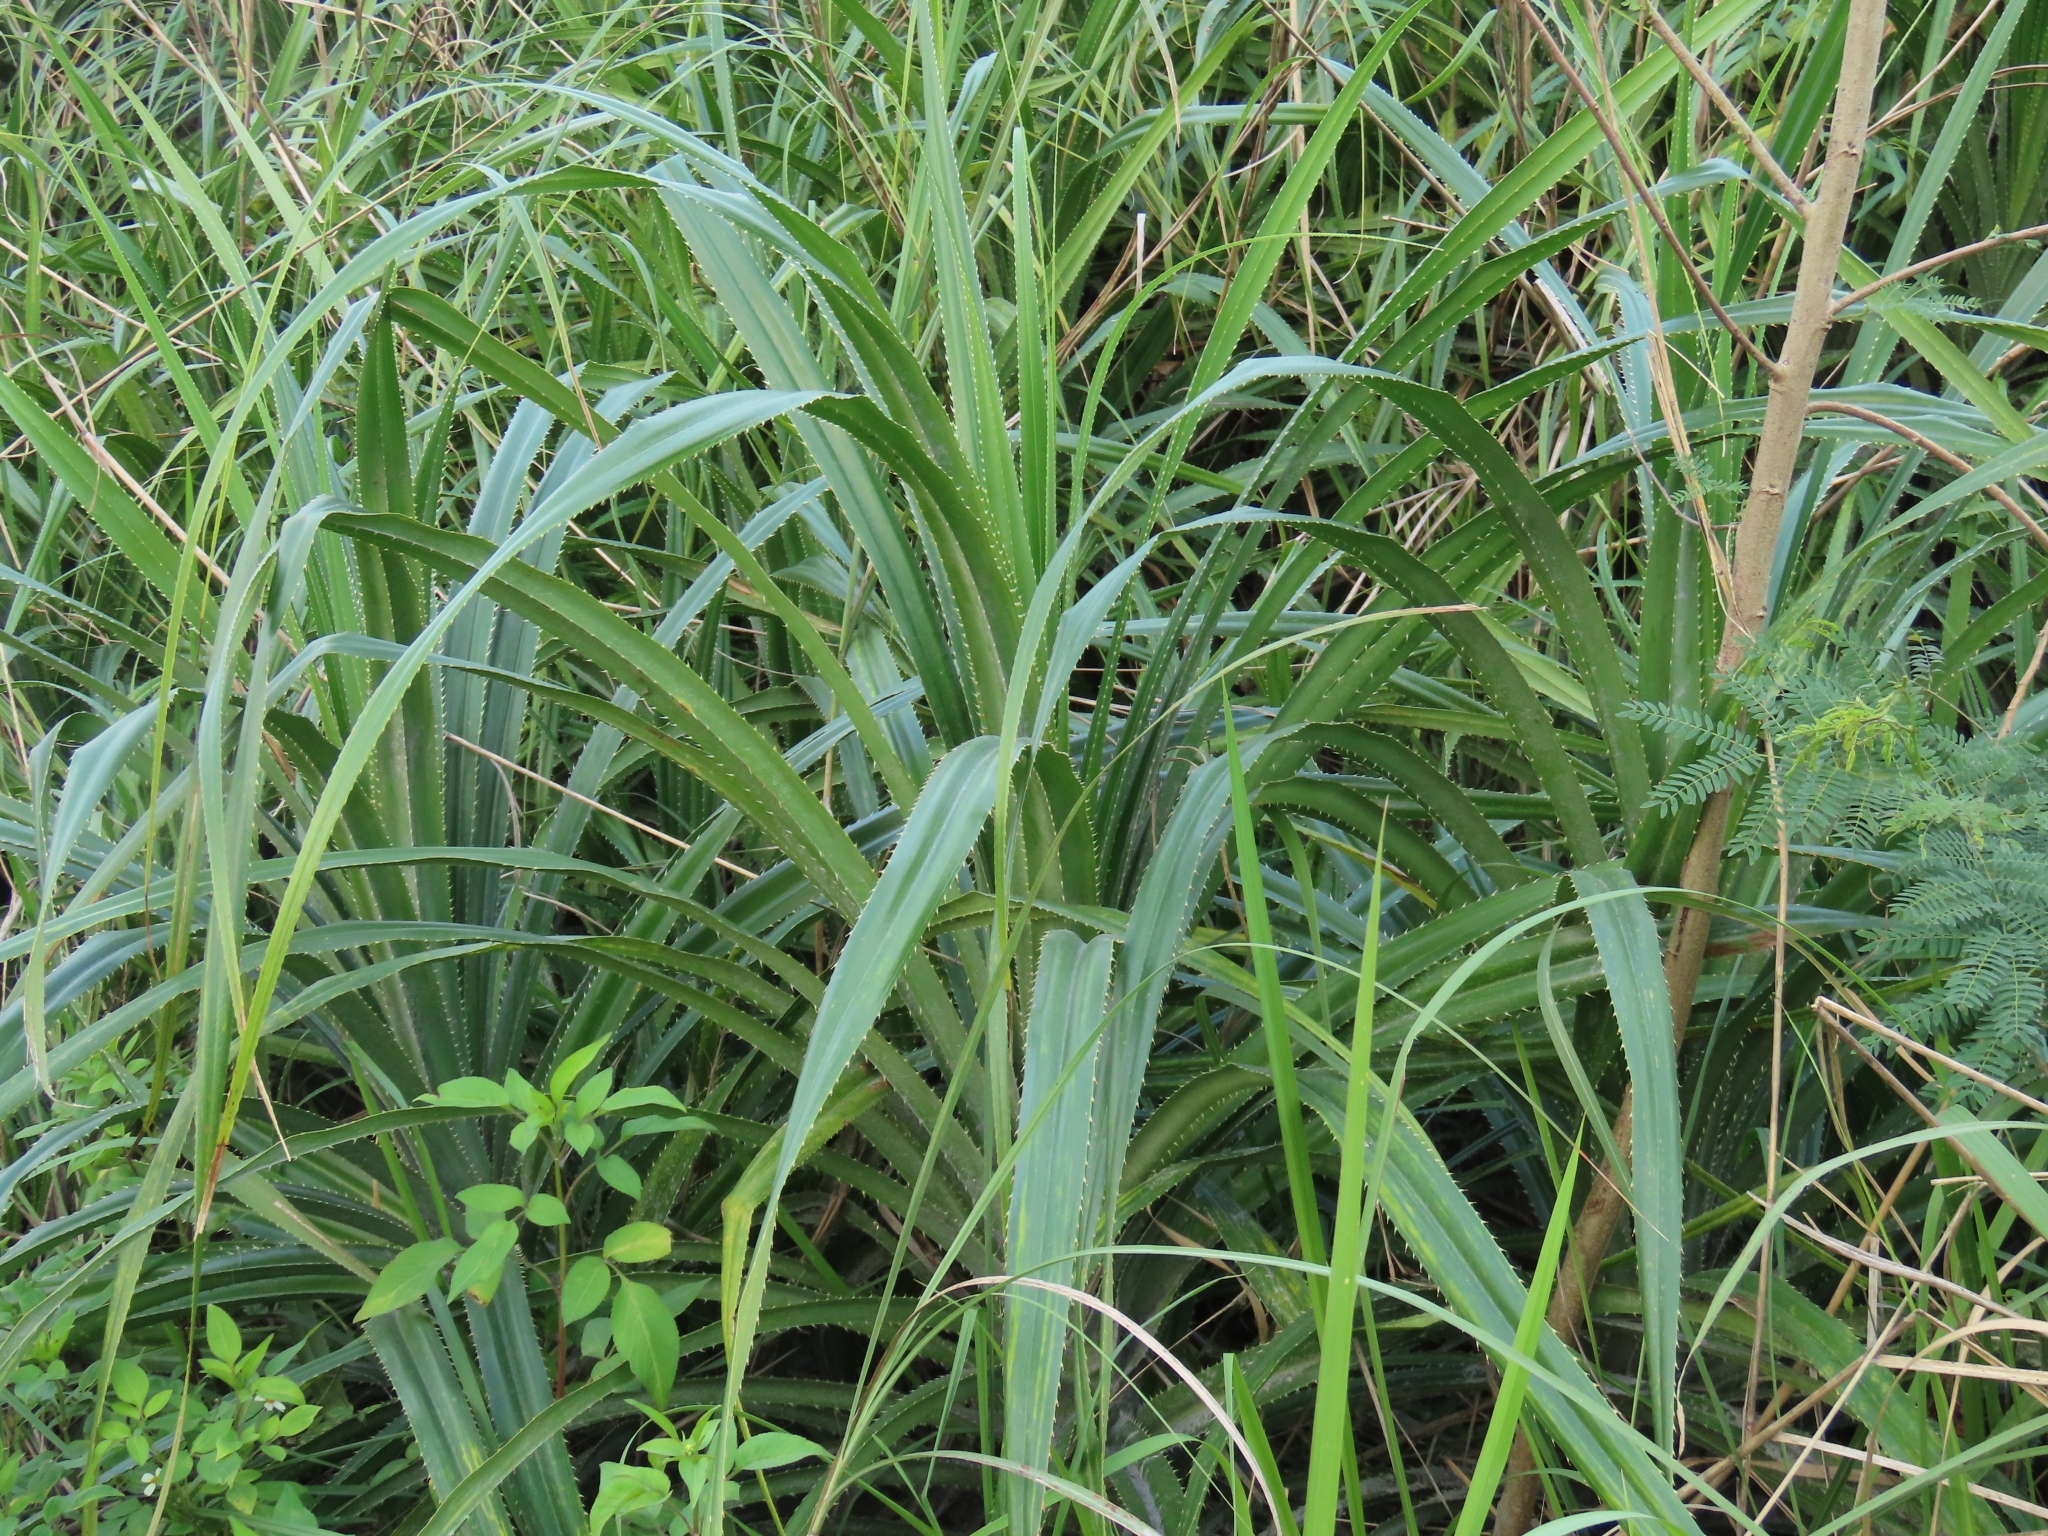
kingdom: Plantae
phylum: Tracheophyta
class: Liliopsida
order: Pandanales
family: Pandanaceae
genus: Pandanus
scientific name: Pandanus odorifer
